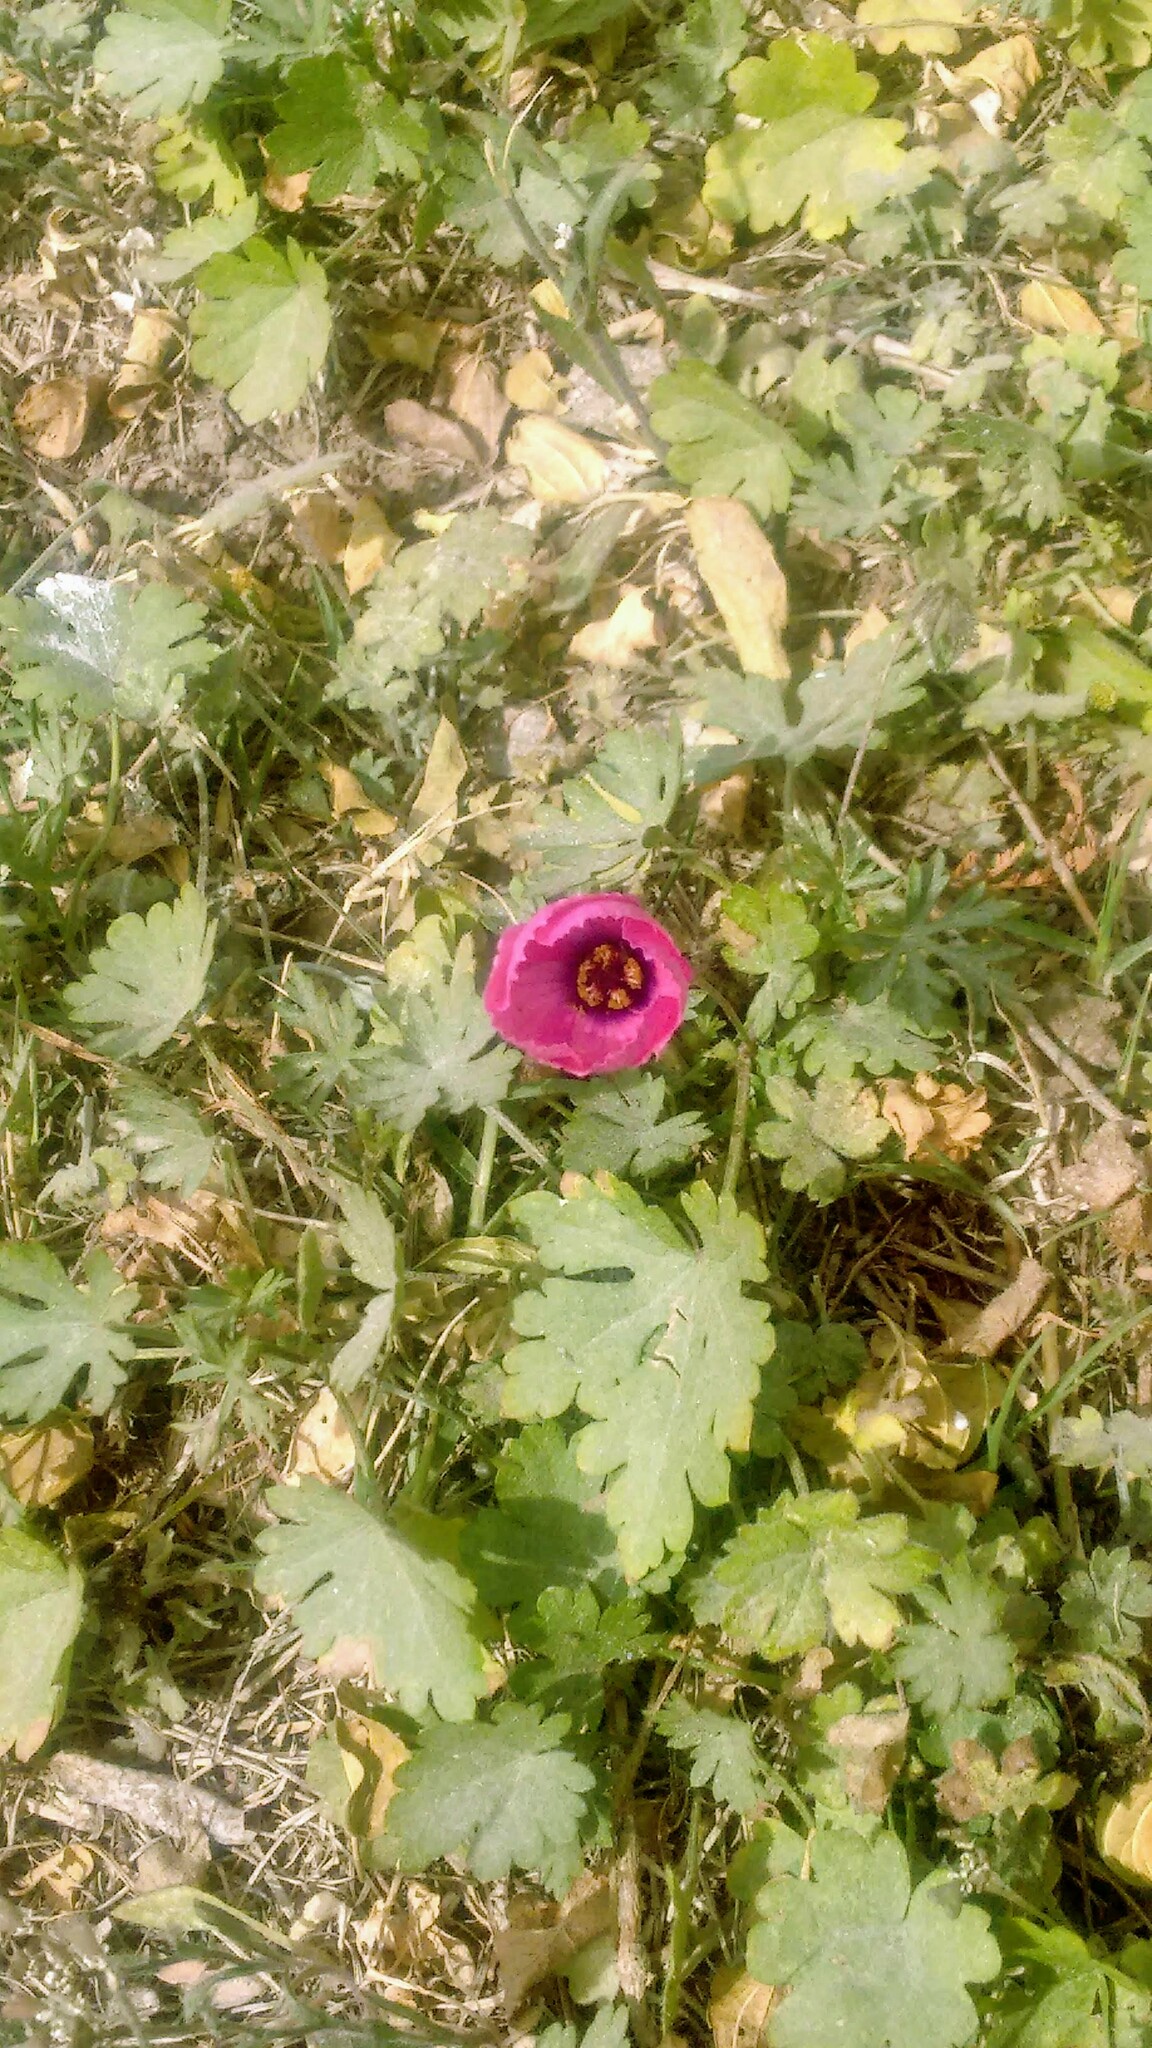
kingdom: Plantae
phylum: Tracheophyta
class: Magnoliopsida
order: Malvales
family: Malvaceae
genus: Modiolastrum
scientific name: Modiolastrum gilliesii
